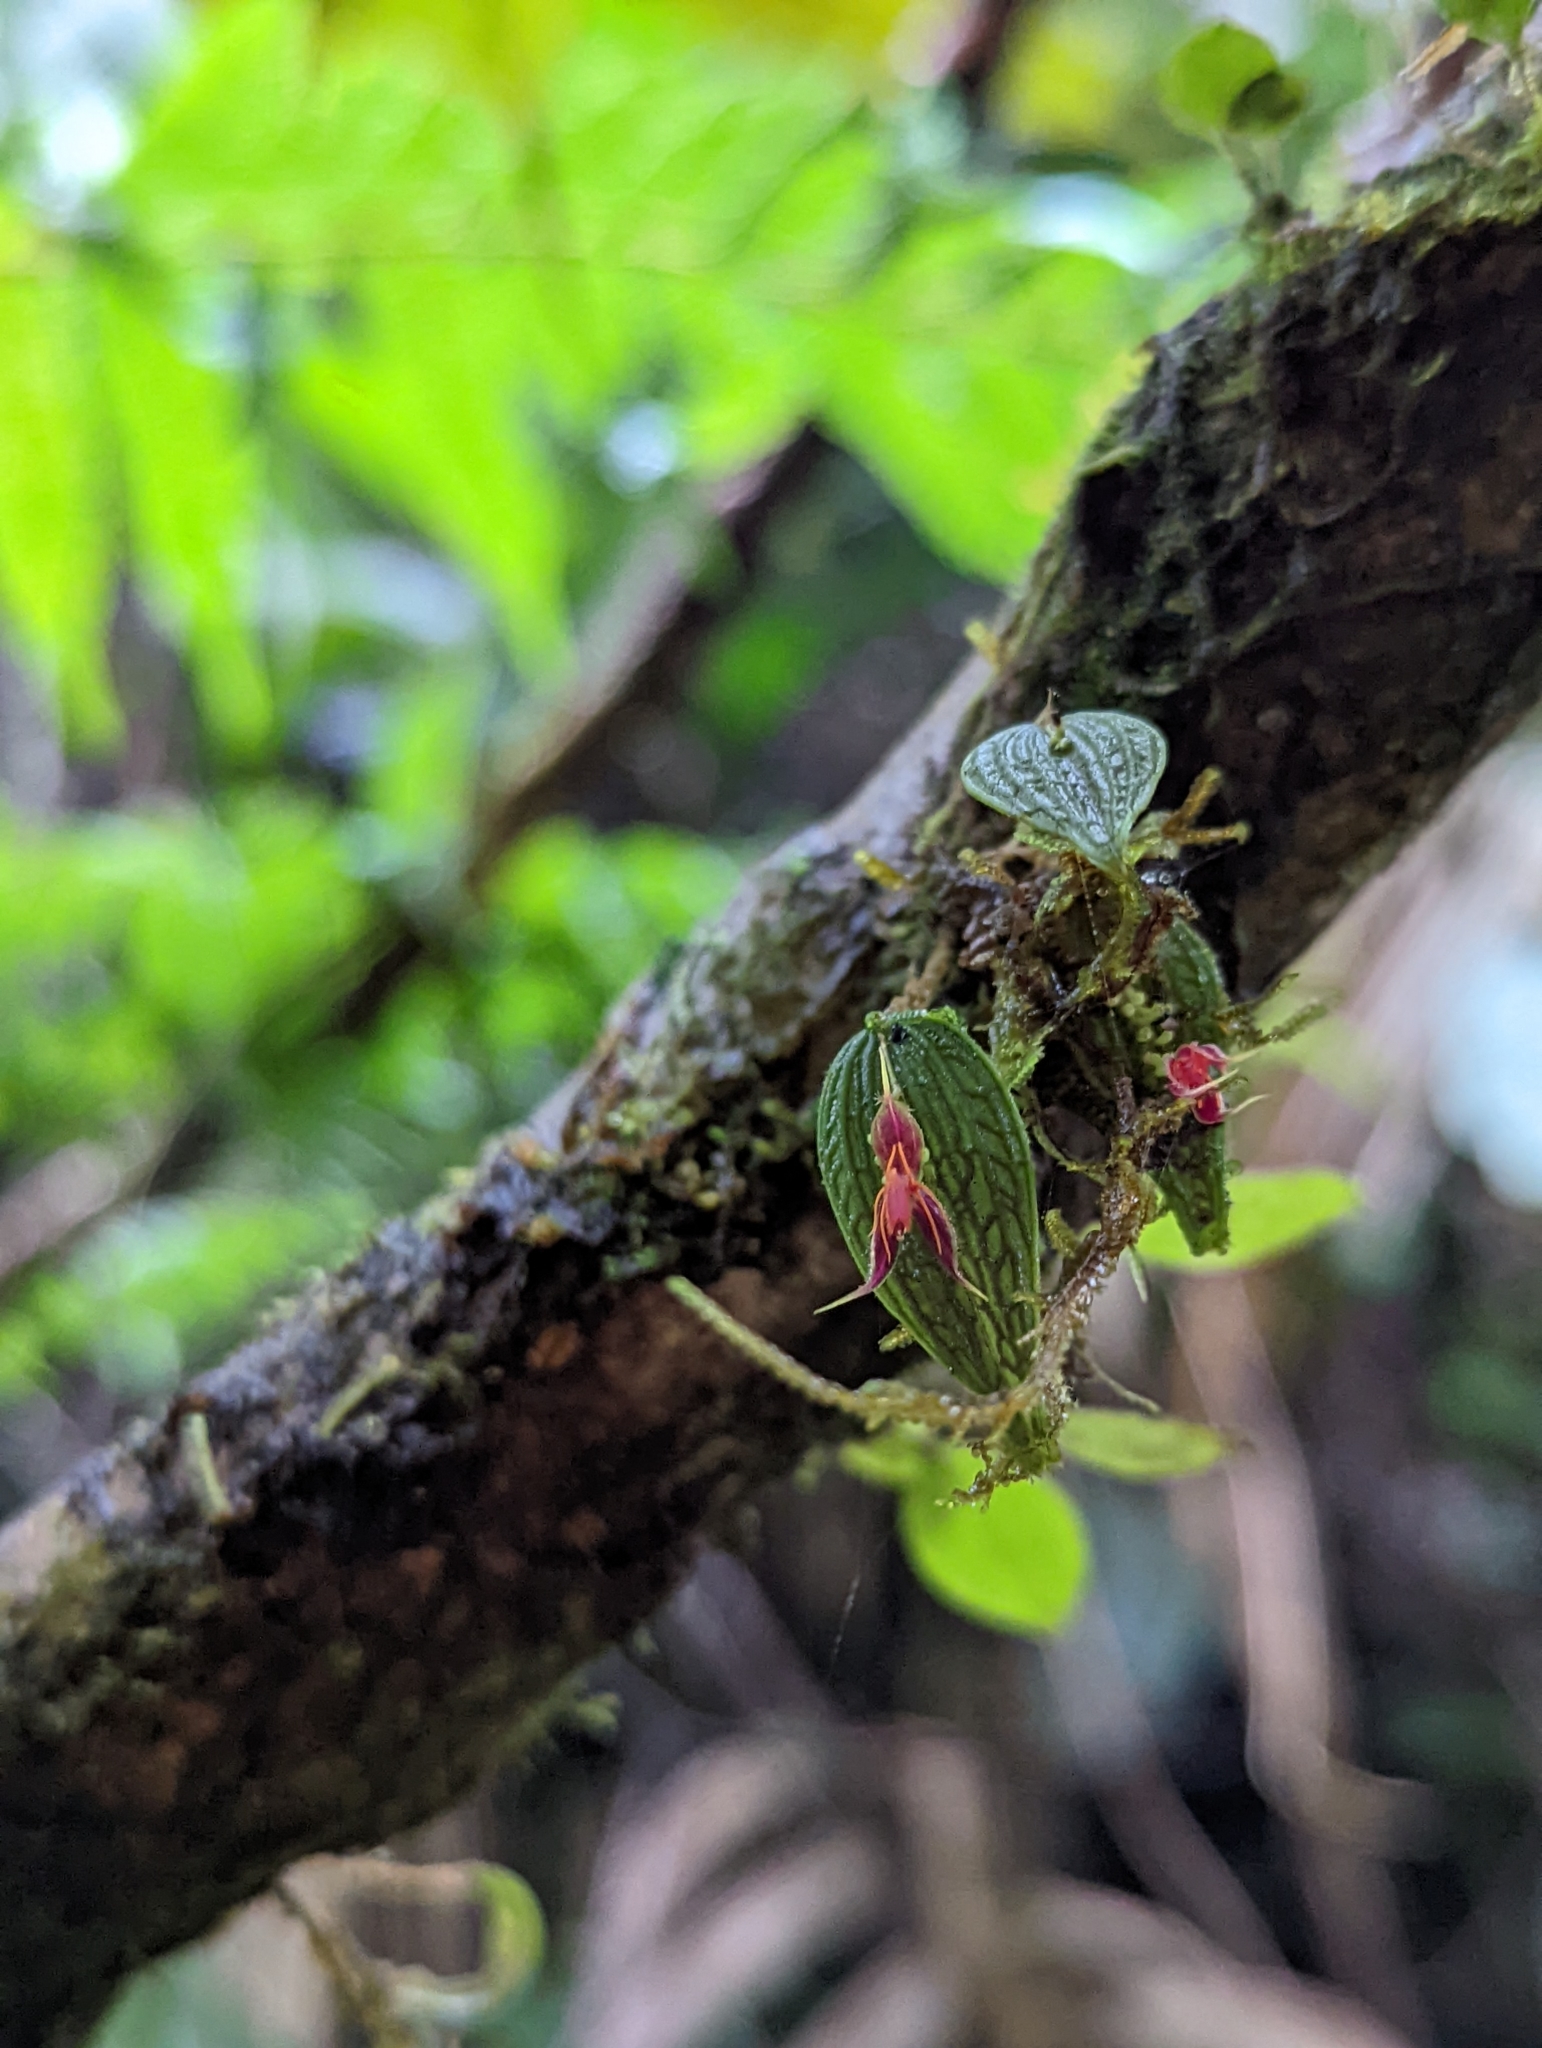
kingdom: Plantae
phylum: Tracheophyta
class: Liliopsida
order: Asparagales
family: Orchidaceae
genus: Lepanthes
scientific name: Lepanthes hexapus
